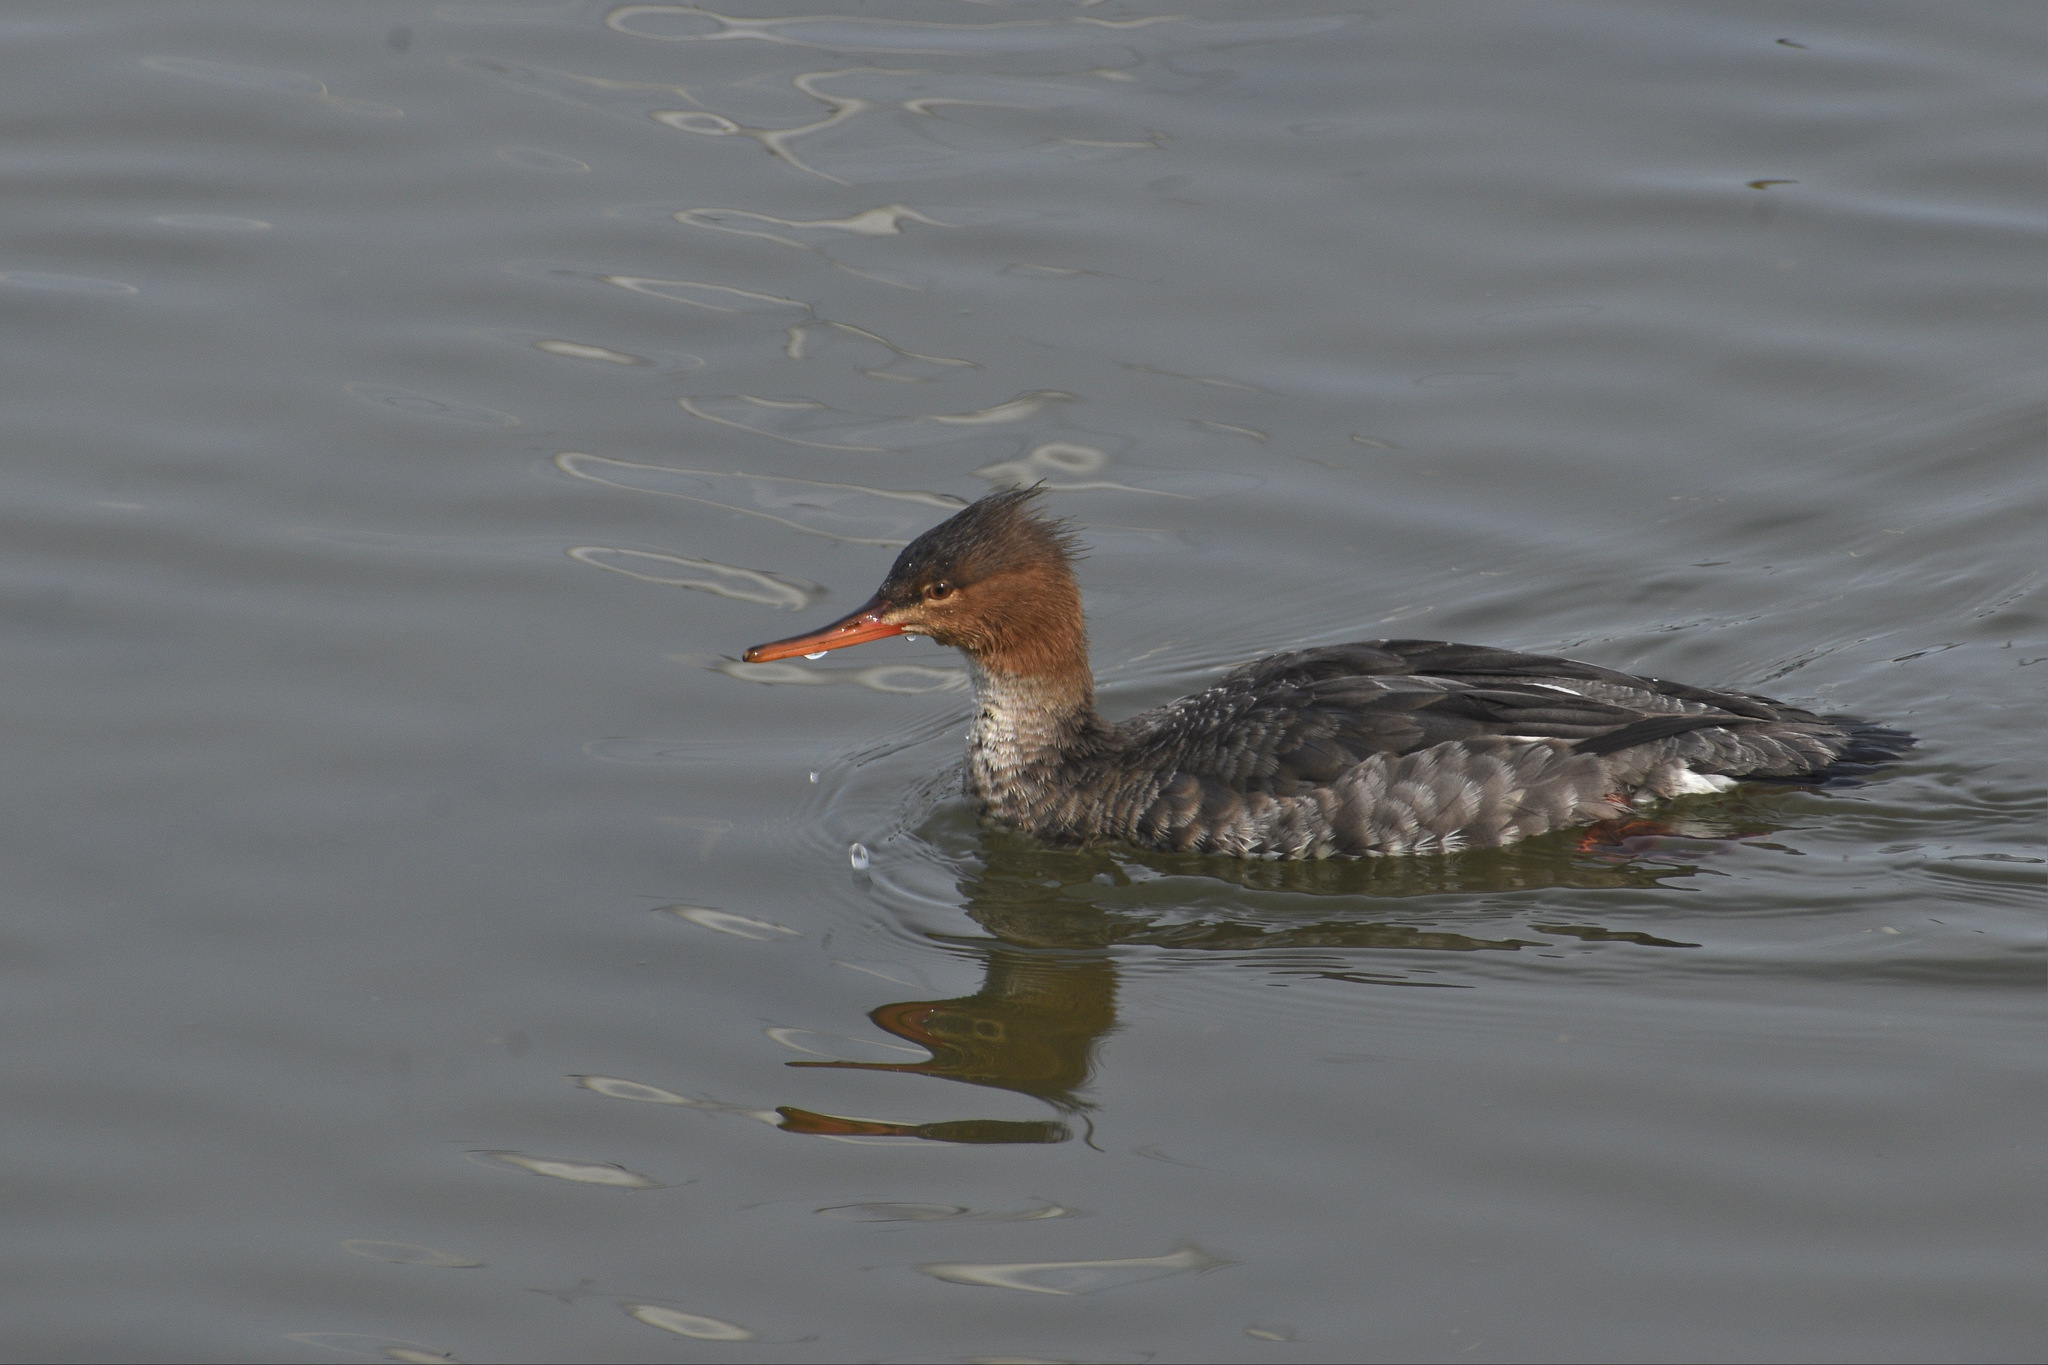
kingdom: Animalia
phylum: Chordata
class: Aves
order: Anseriformes
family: Anatidae
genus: Mergus
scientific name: Mergus serrator
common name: Red-breasted merganser
